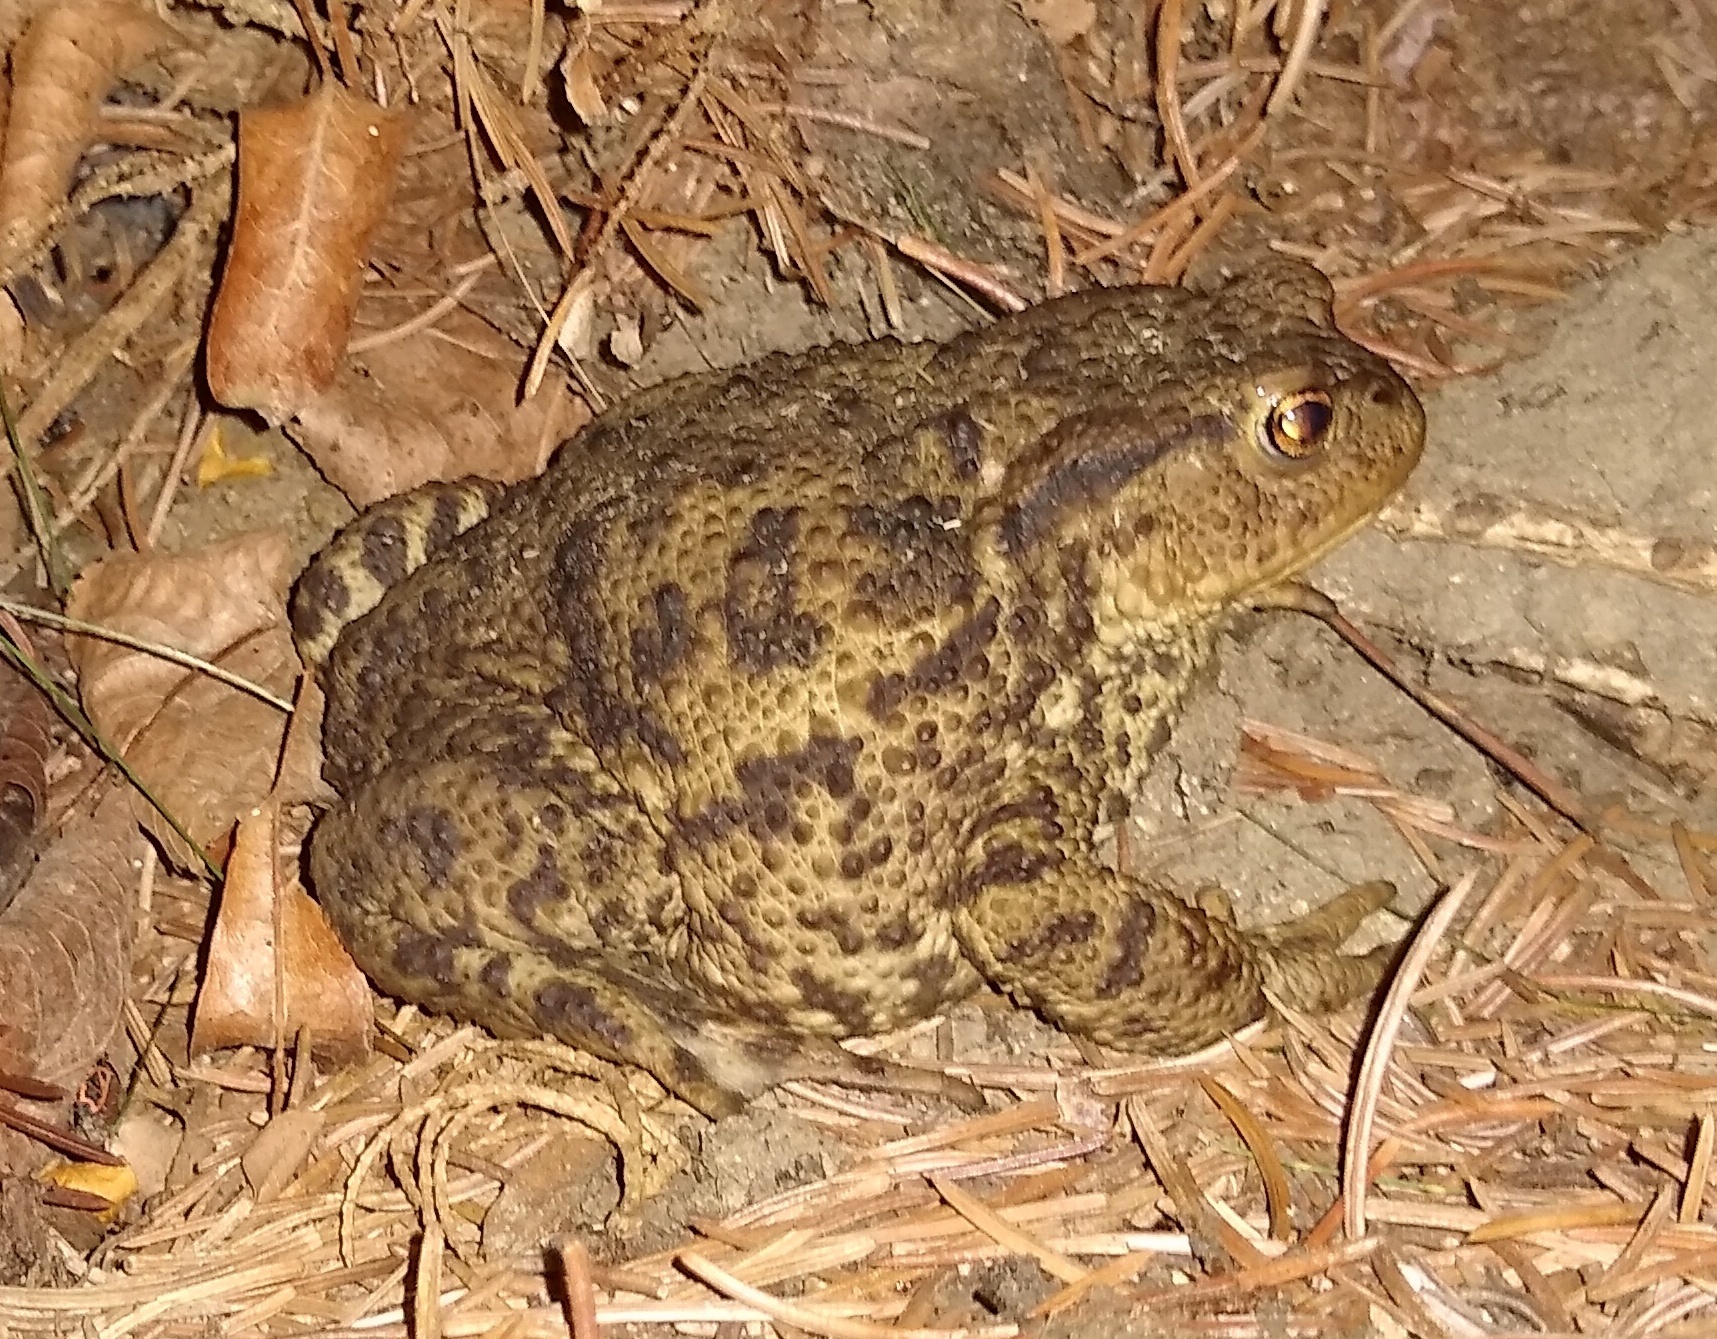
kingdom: Animalia
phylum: Chordata
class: Amphibia
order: Anura
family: Bufonidae
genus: Bufo
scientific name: Bufo bufo
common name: Common toad
